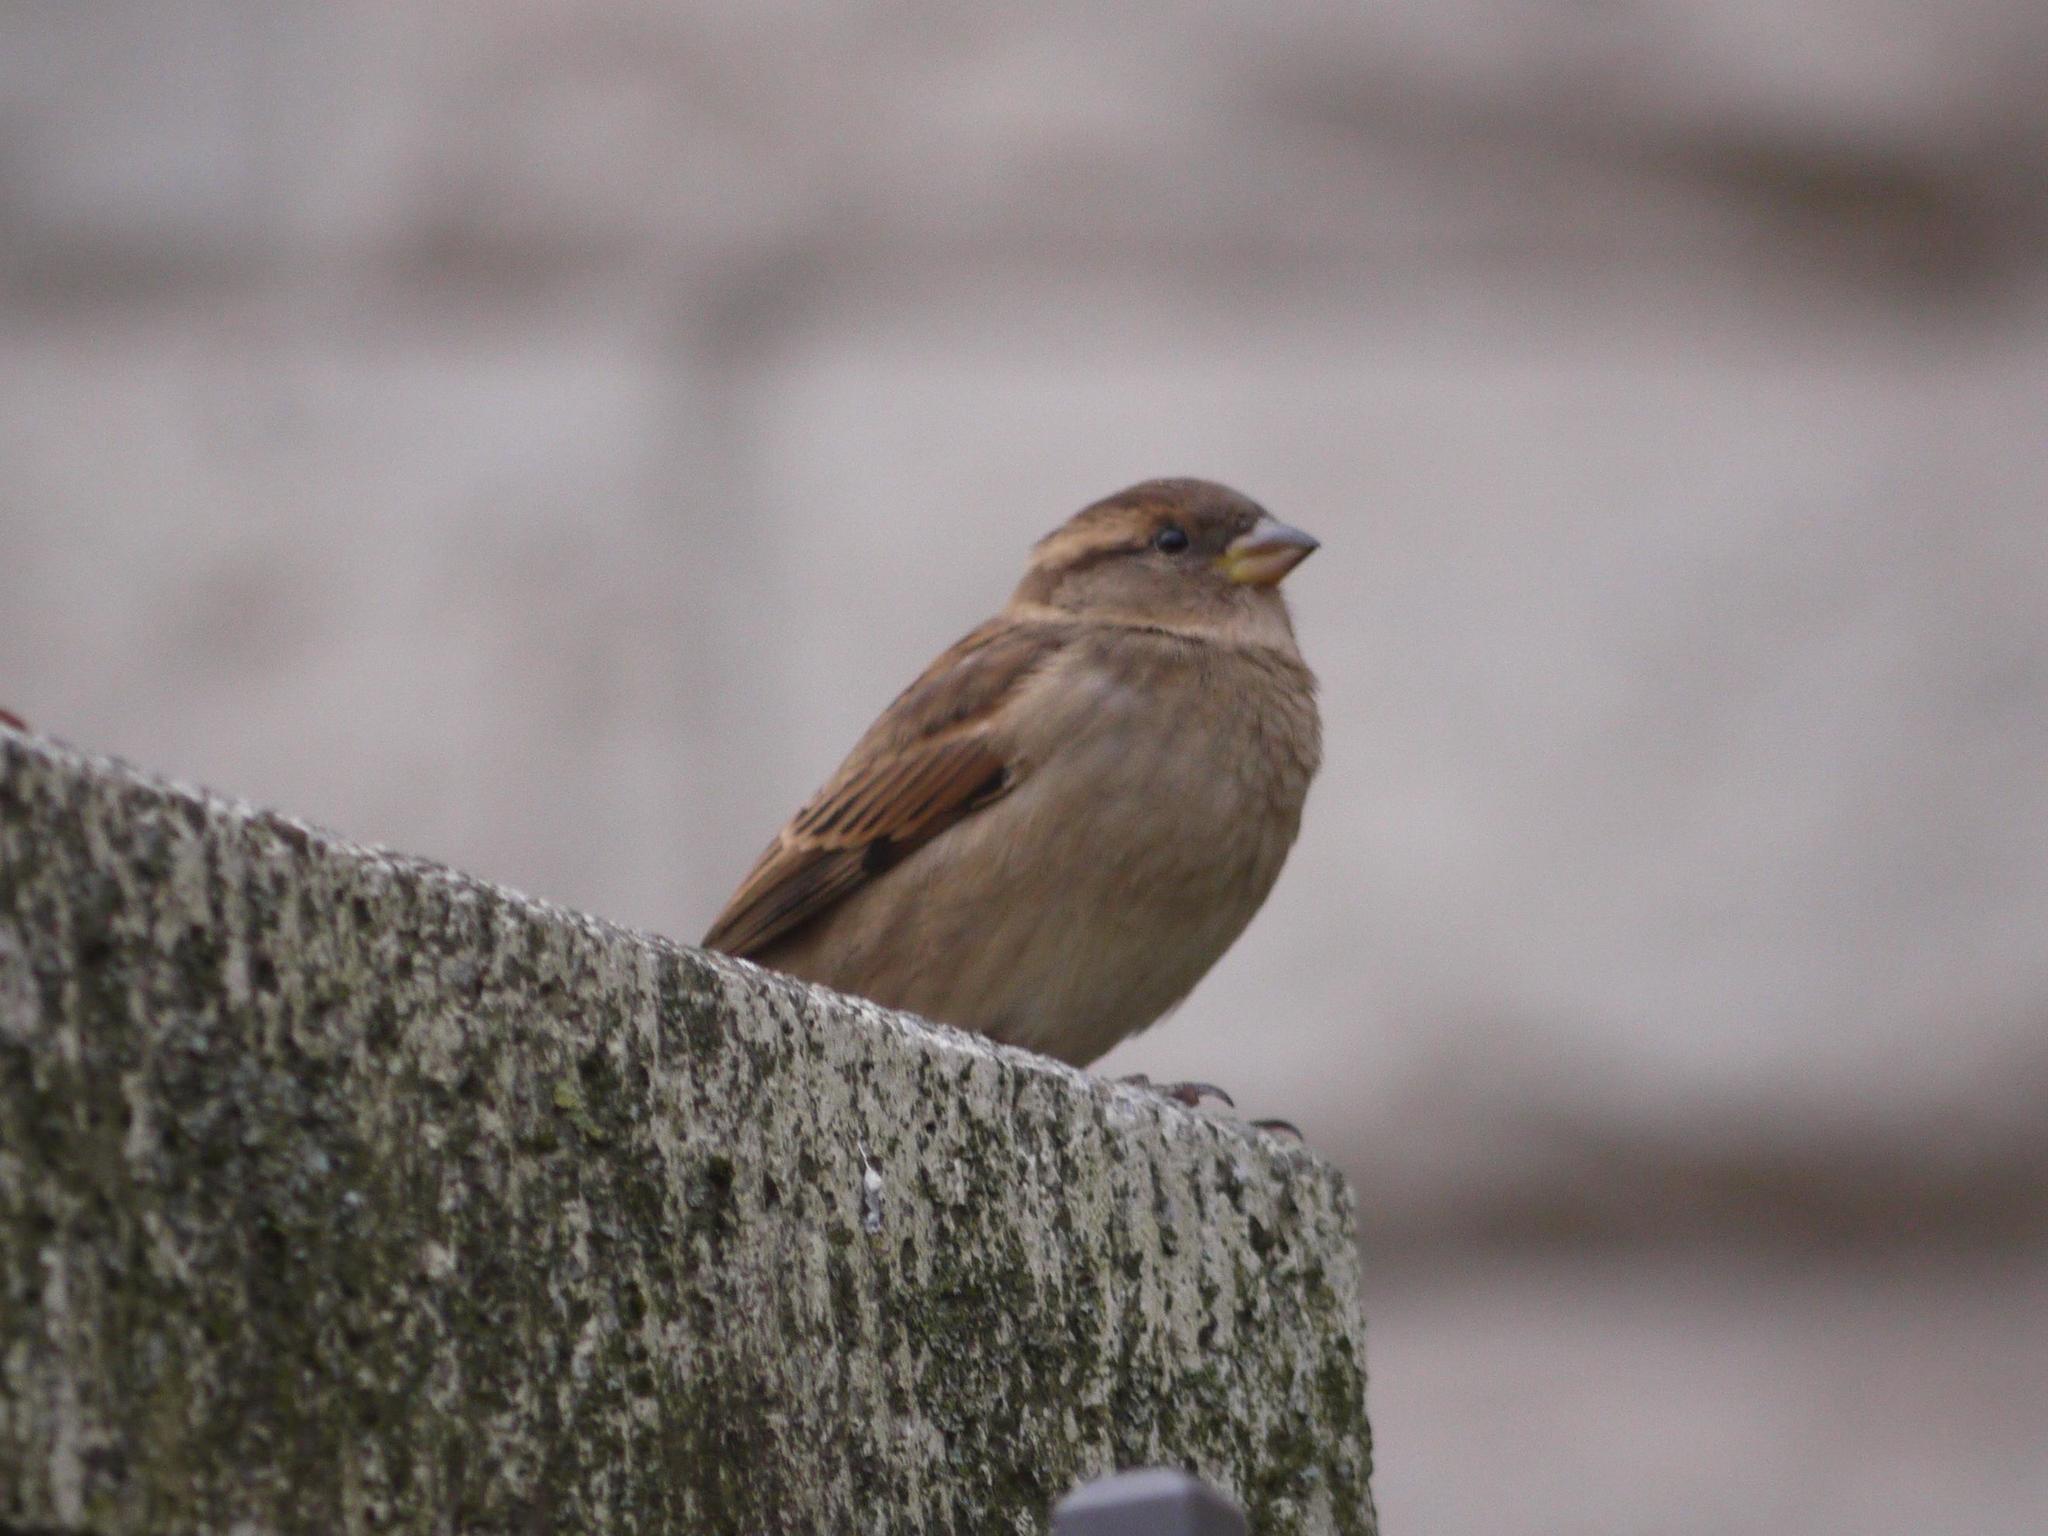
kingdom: Animalia
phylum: Chordata
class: Aves
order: Passeriformes
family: Passeridae
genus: Passer
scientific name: Passer domesticus
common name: House sparrow
